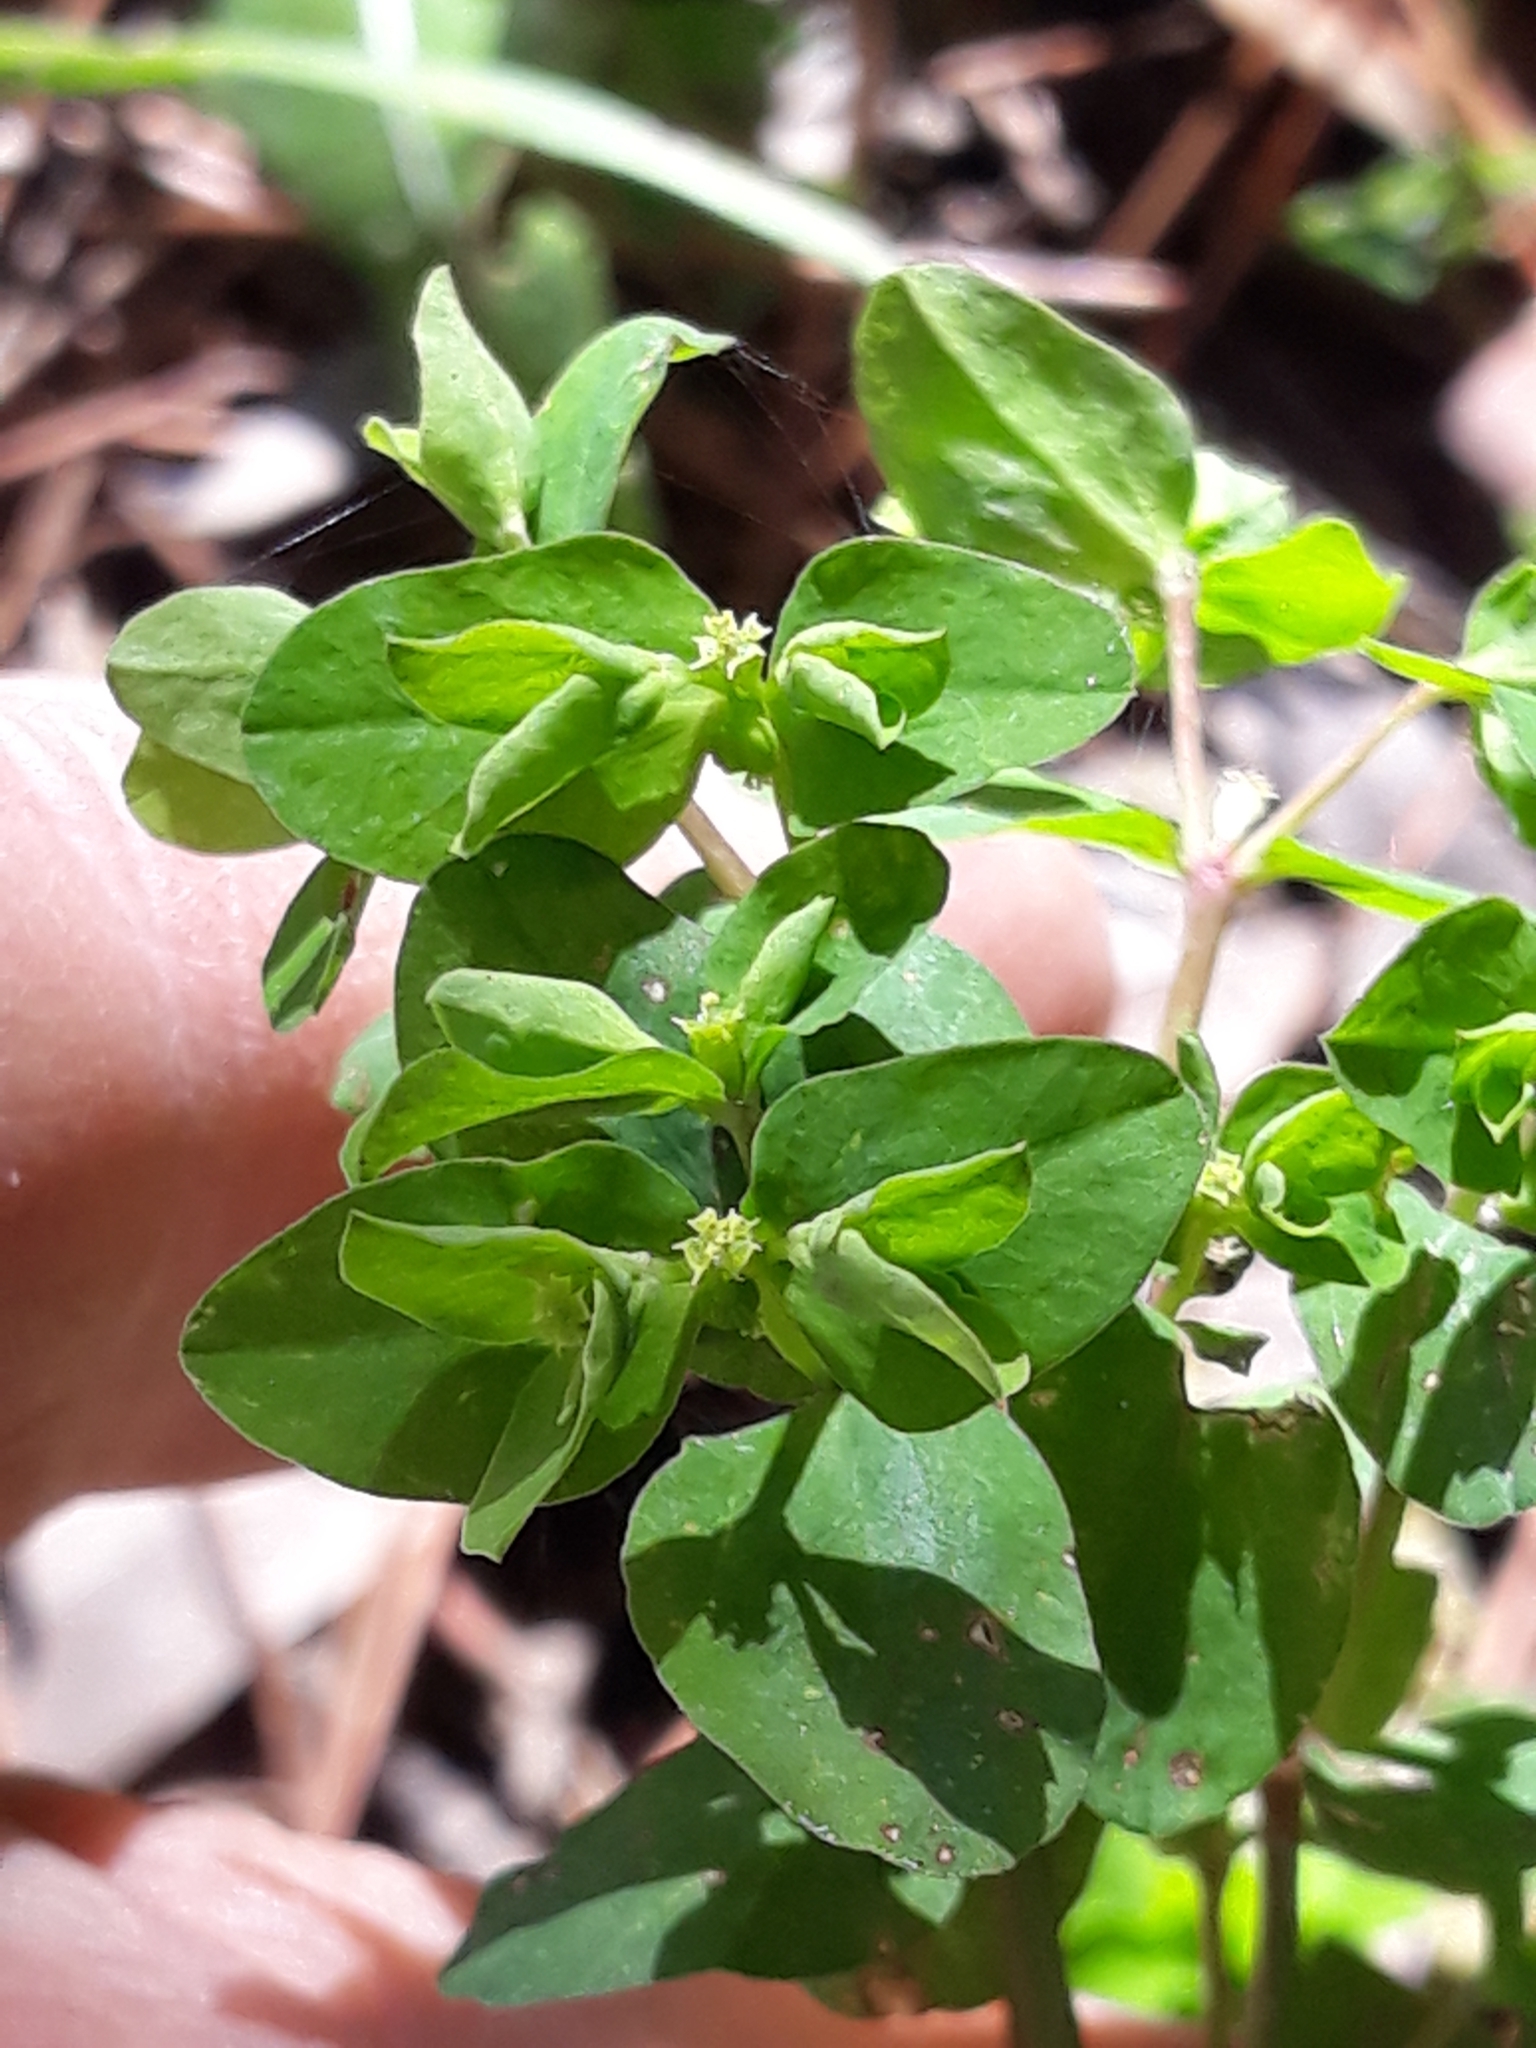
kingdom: Plantae
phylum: Tracheophyta
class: Magnoliopsida
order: Malpighiales
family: Euphorbiaceae
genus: Euphorbia
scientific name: Euphorbia peplus
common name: Petty spurge
